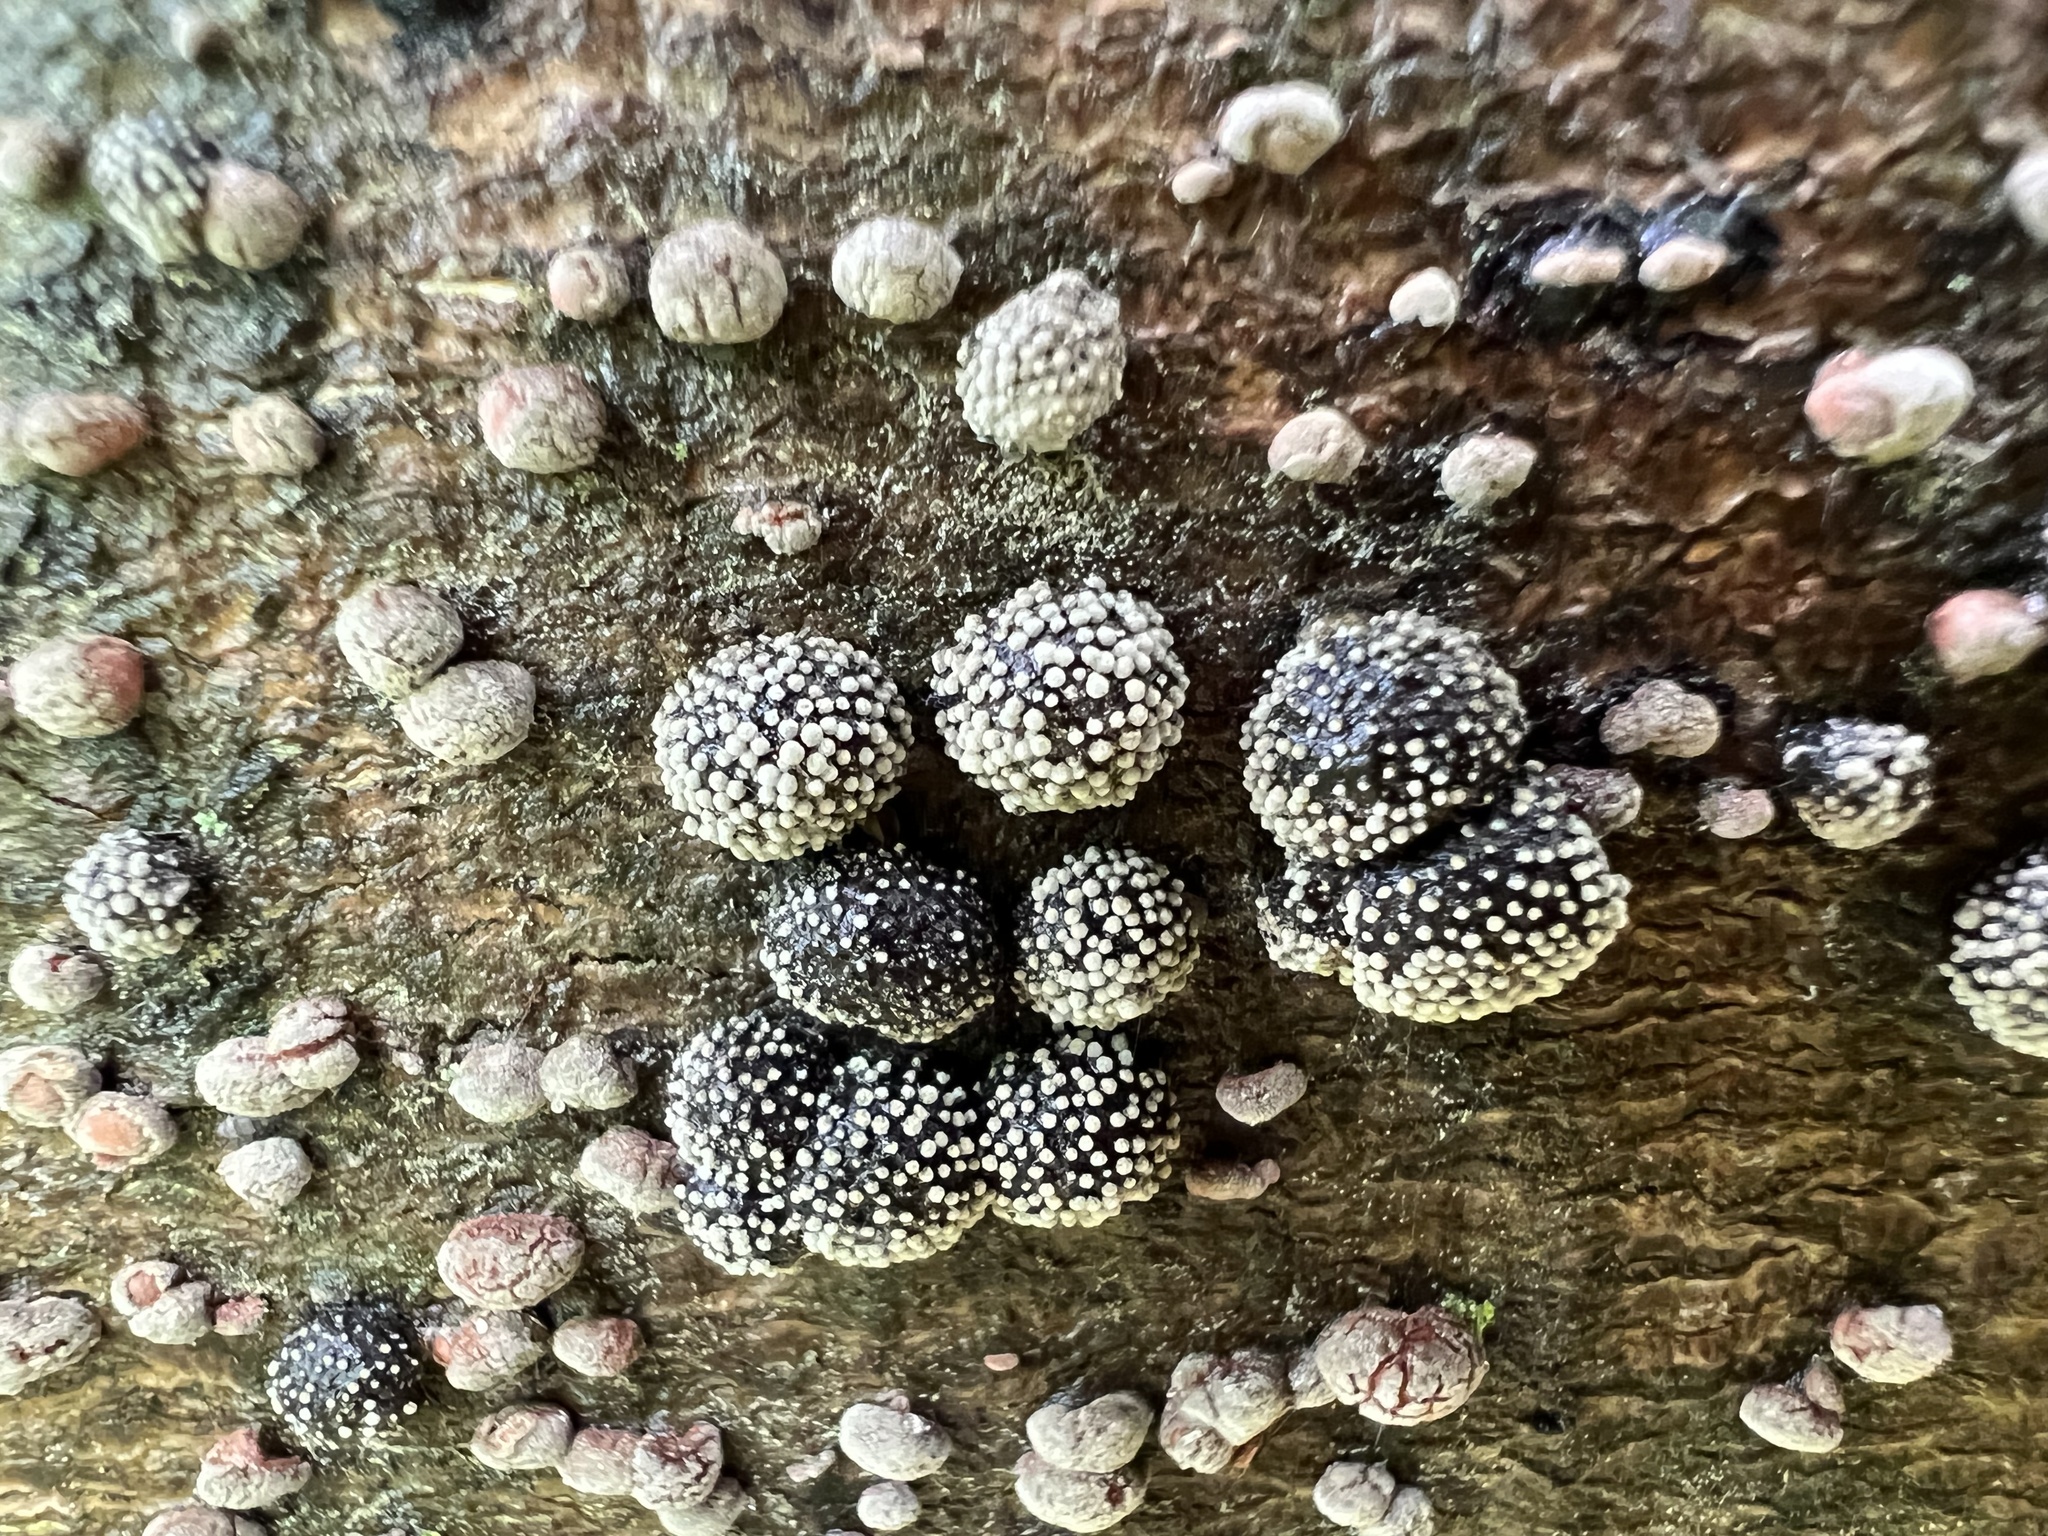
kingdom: Fungi
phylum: Ascomycota
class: Sordariomycetes
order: Xylariales
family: Hypoxylaceae
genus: Hypoxylon
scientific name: Hypoxylon fragiforme
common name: Beech woodwart
